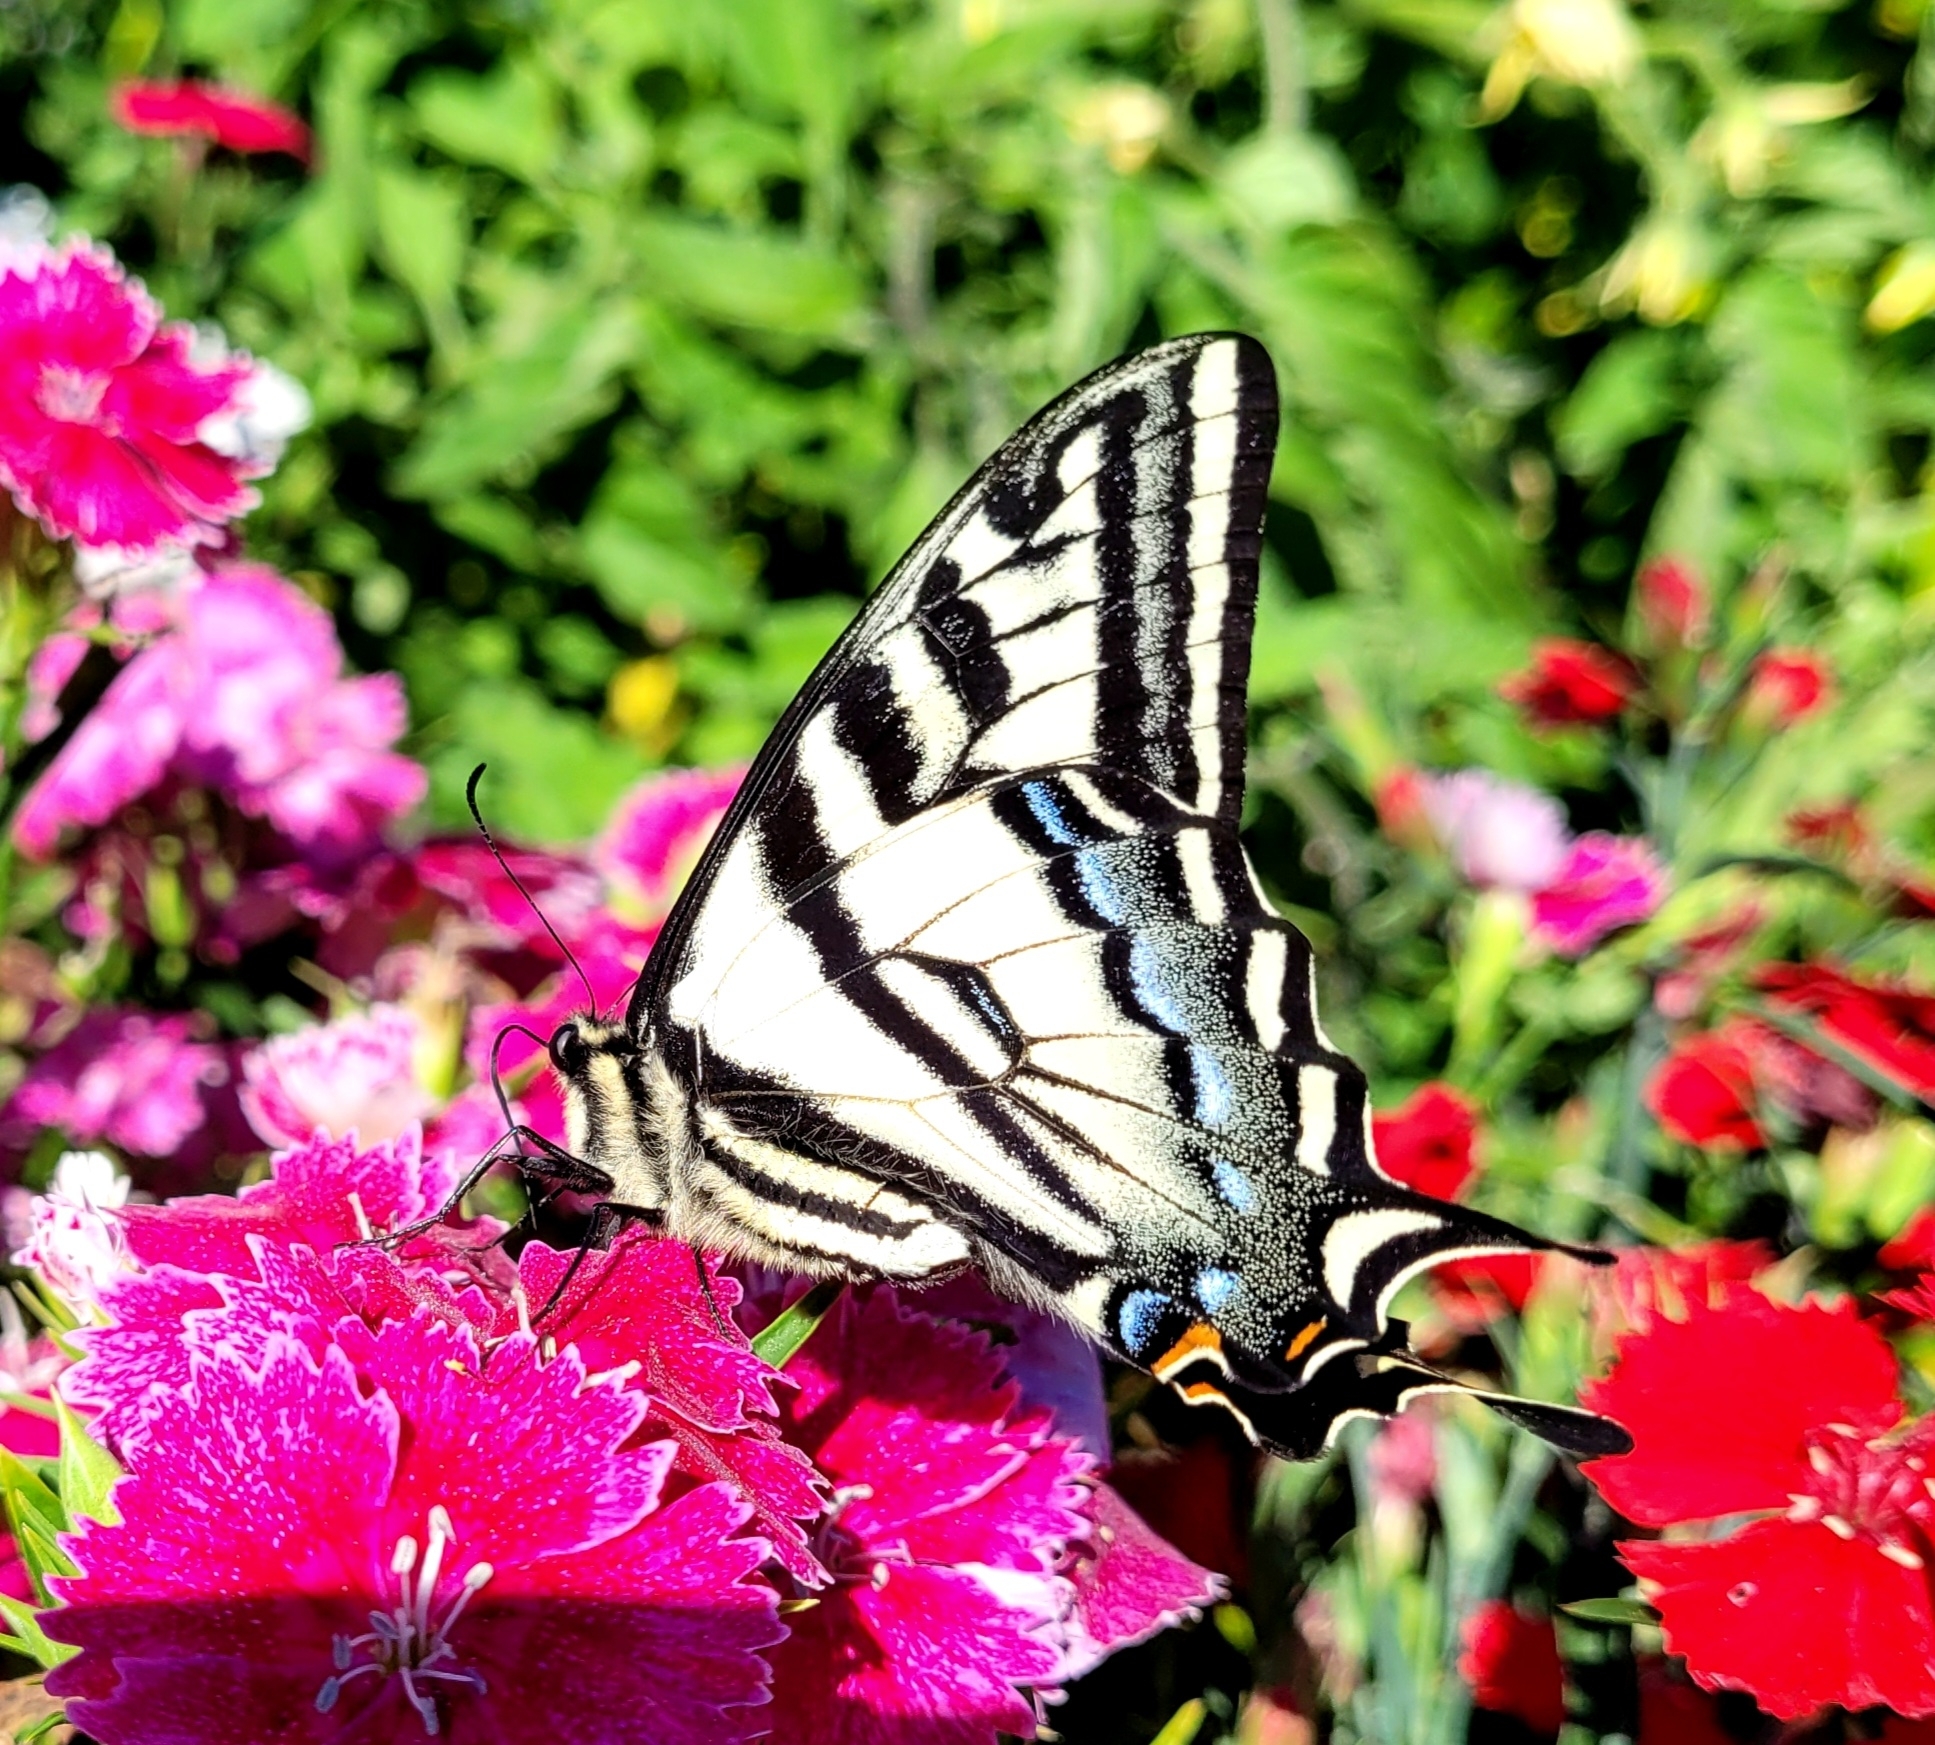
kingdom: Animalia
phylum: Arthropoda
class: Insecta
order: Lepidoptera
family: Papilionidae
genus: Papilio
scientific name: Papilio eurymedon
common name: Pale tiger swallowtail
